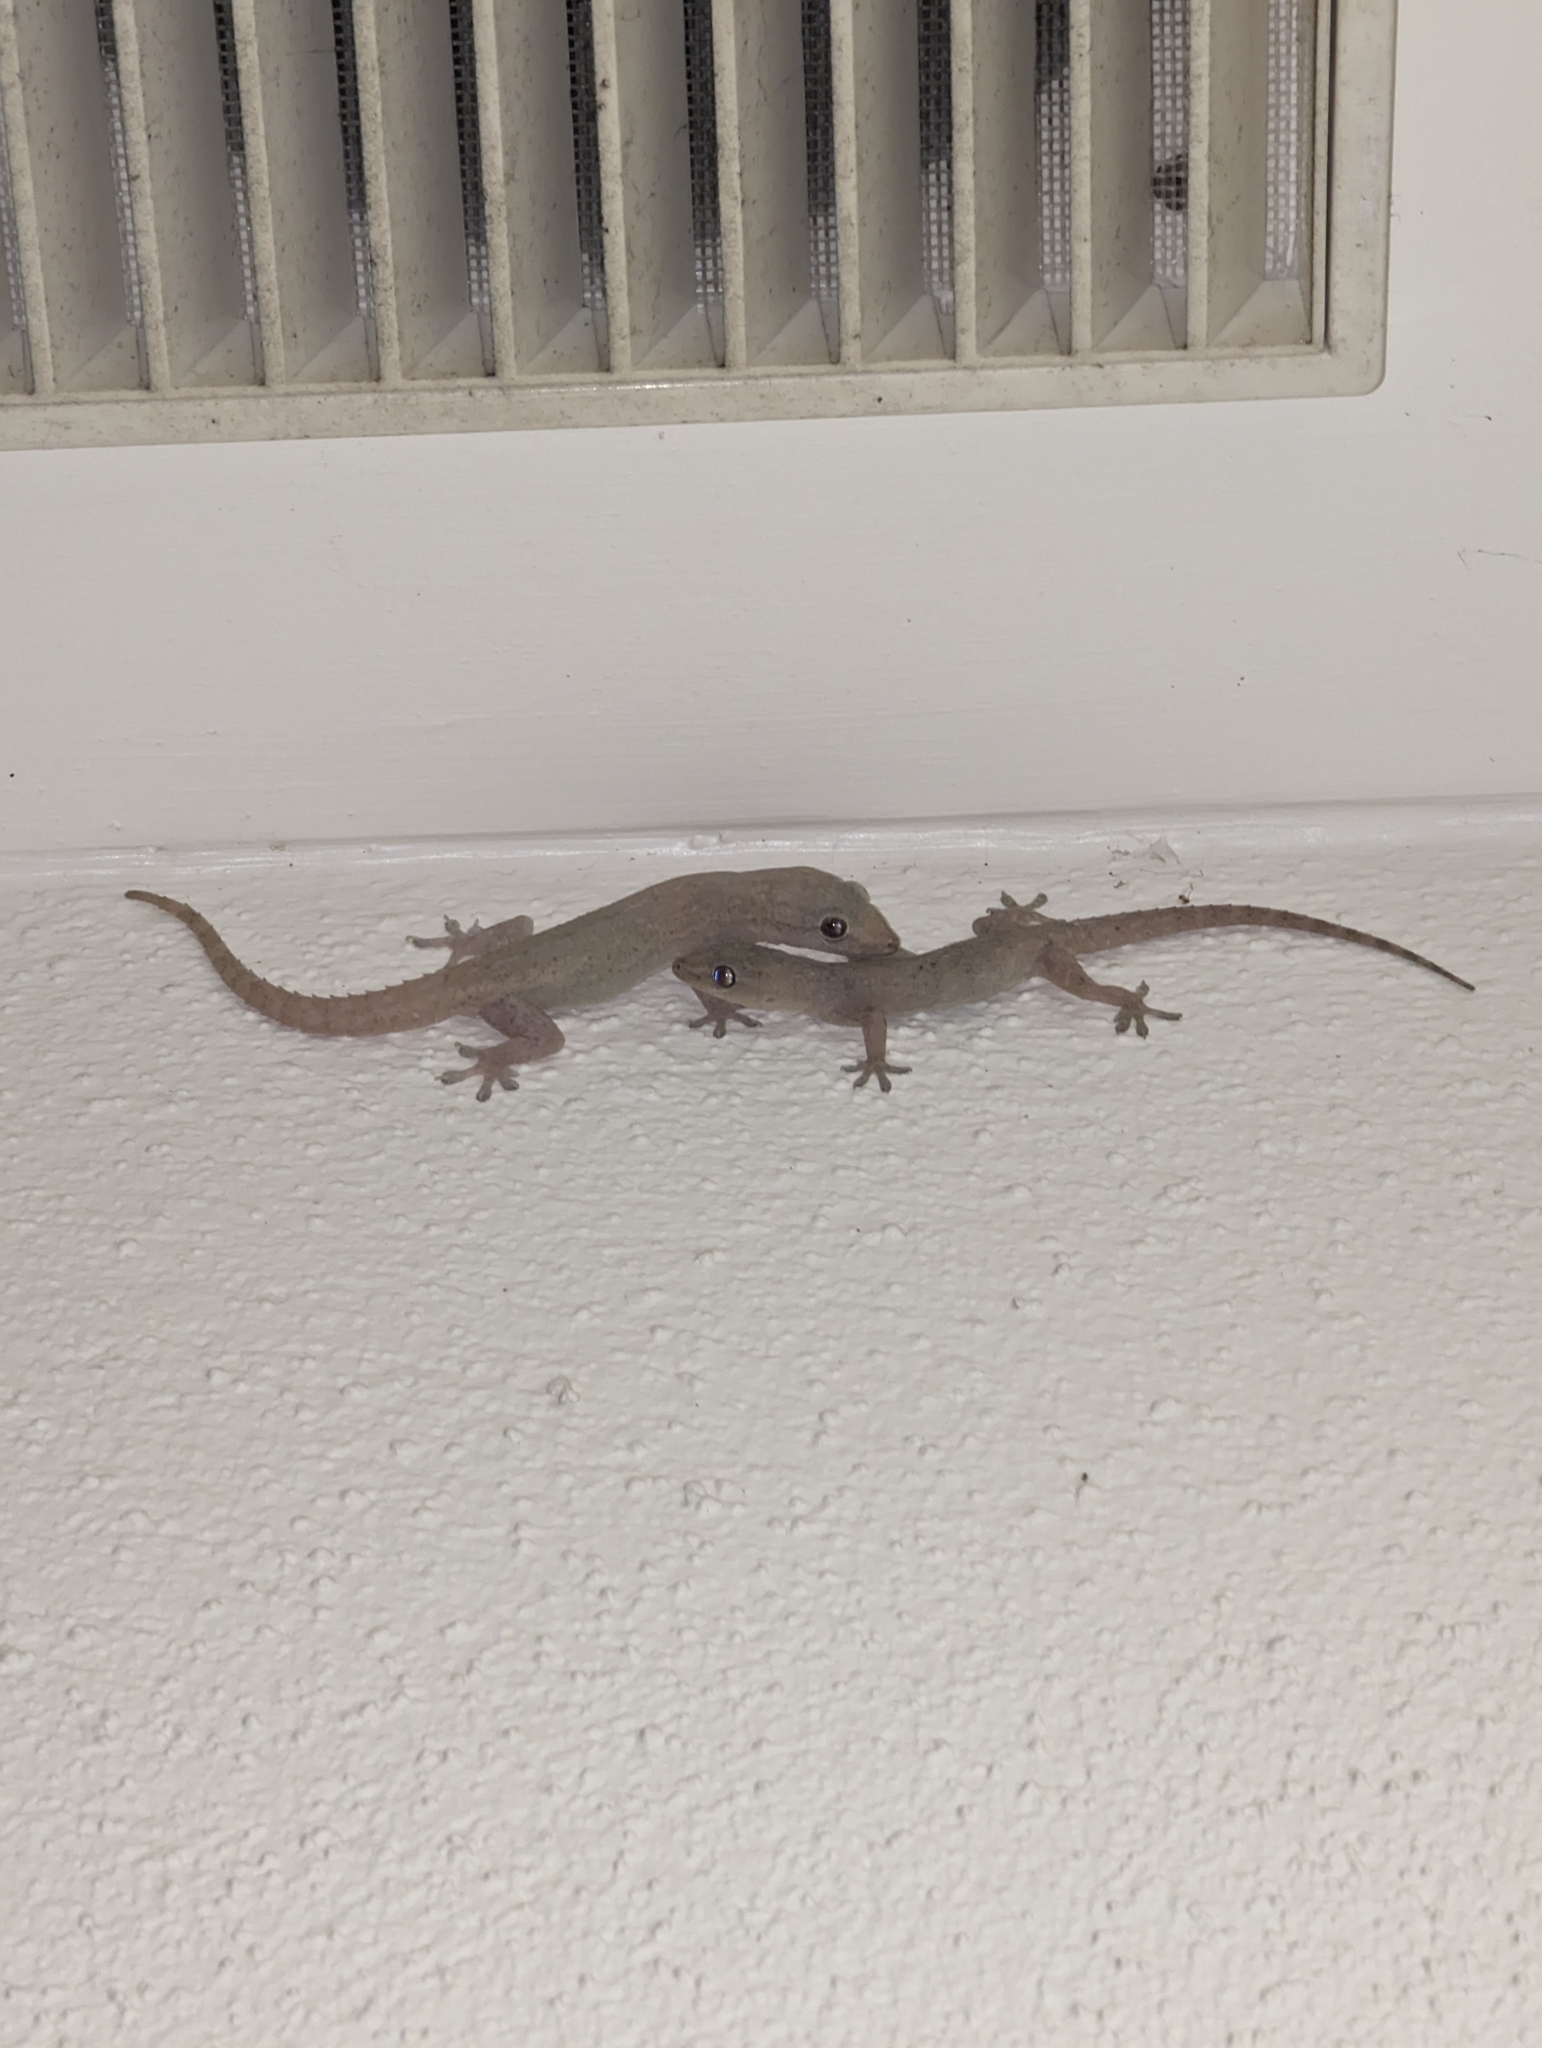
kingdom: Animalia
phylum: Chordata
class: Squamata
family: Gekkonidae
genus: Hemidactylus
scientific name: Hemidactylus frenatus
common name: Common house gecko
